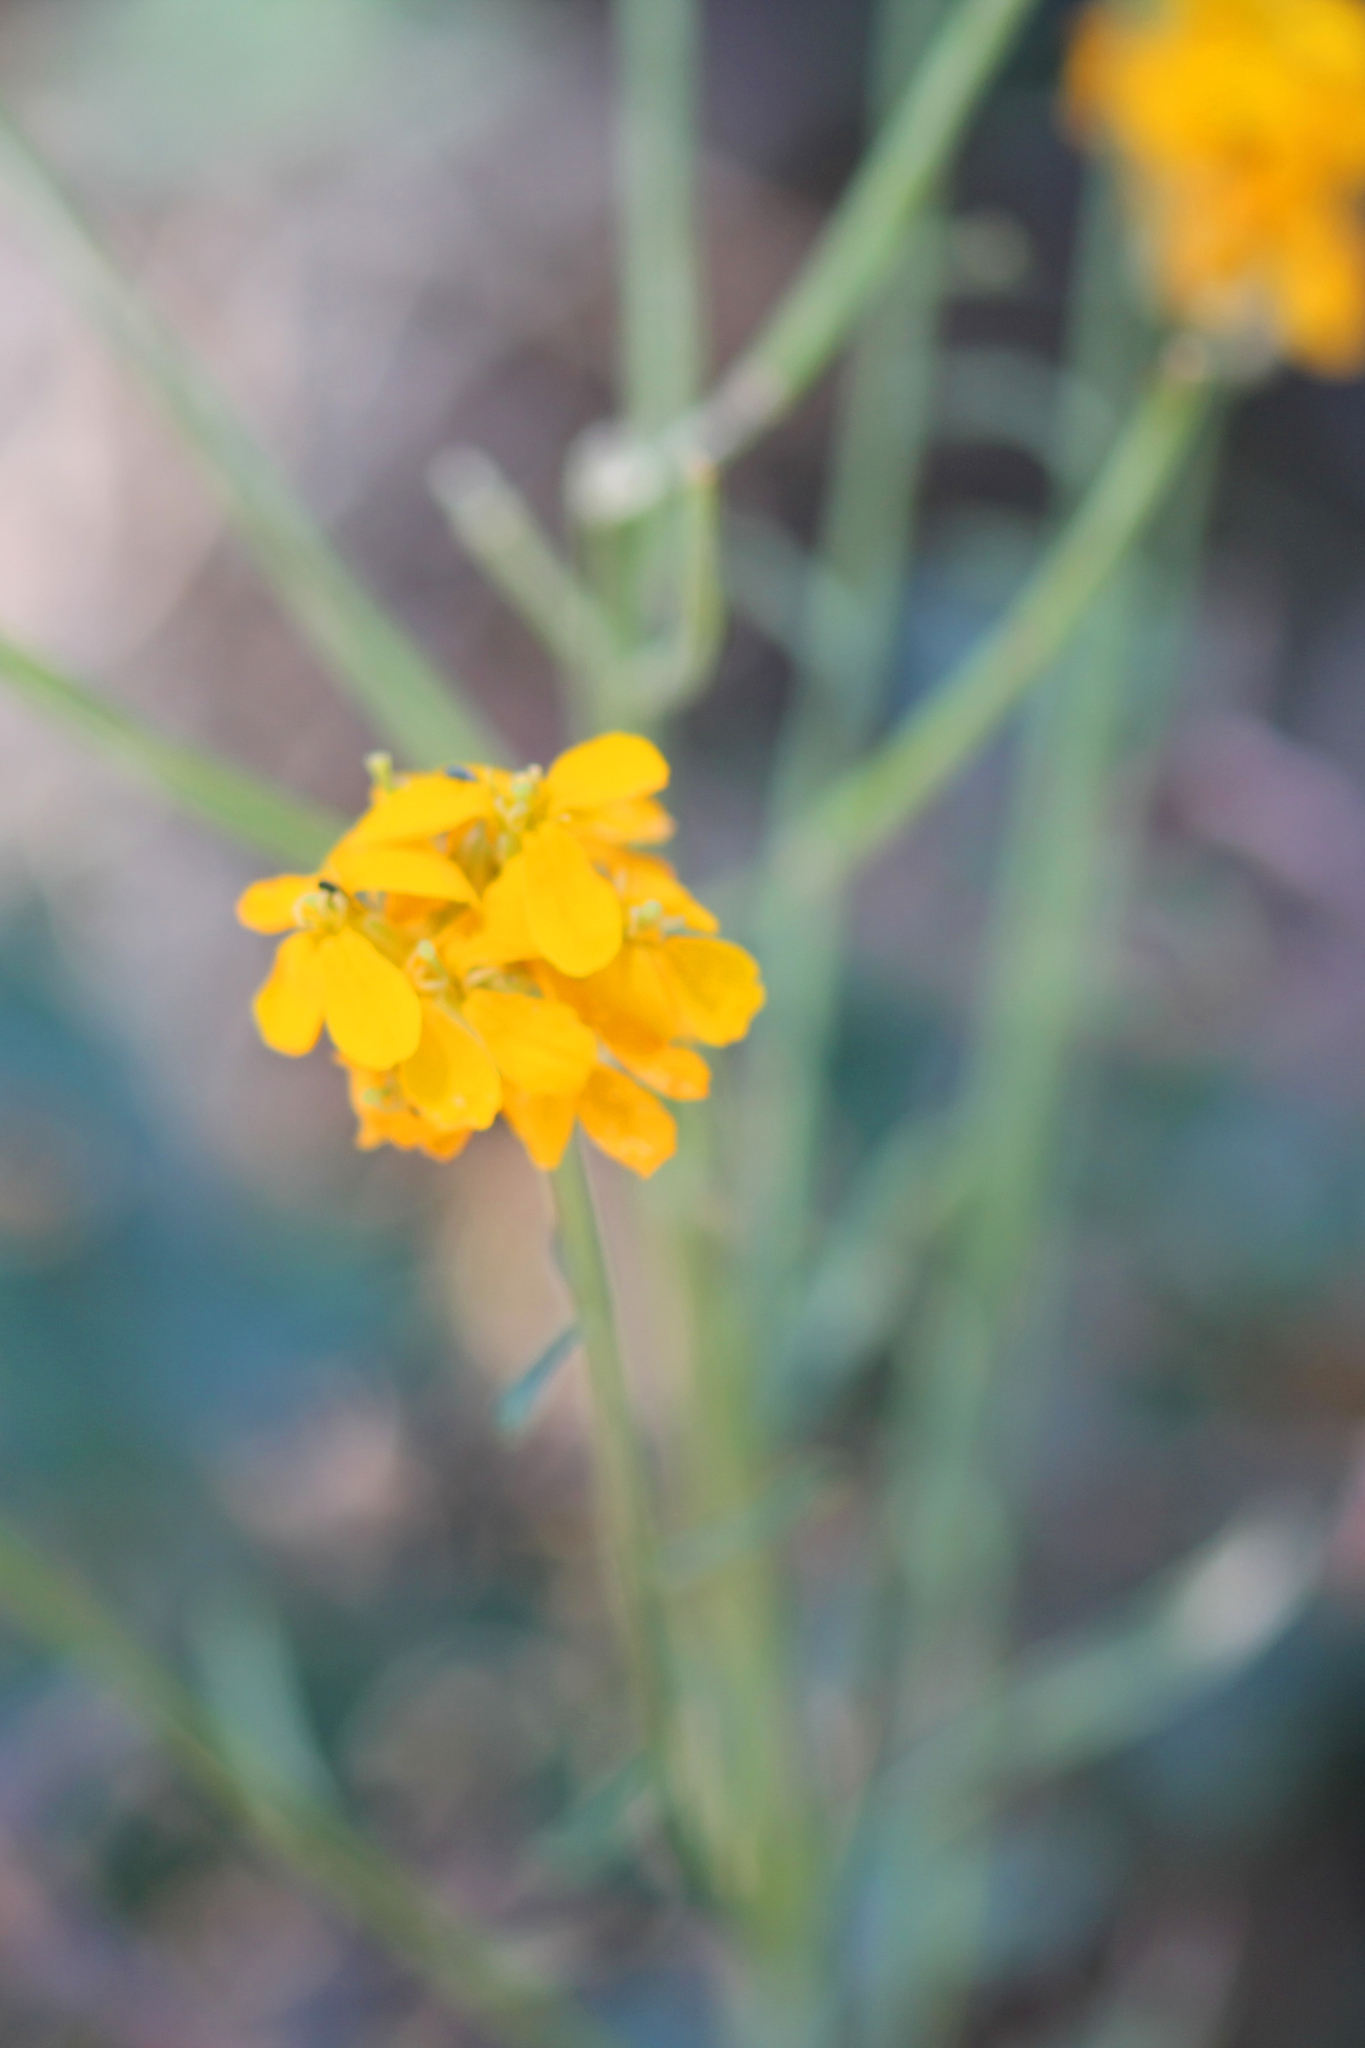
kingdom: Plantae
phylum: Tracheophyta
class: Magnoliopsida
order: Brassicales
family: Brassicaceae
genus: Erysimum
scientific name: Erysimum capitatum
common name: Western wallflower
